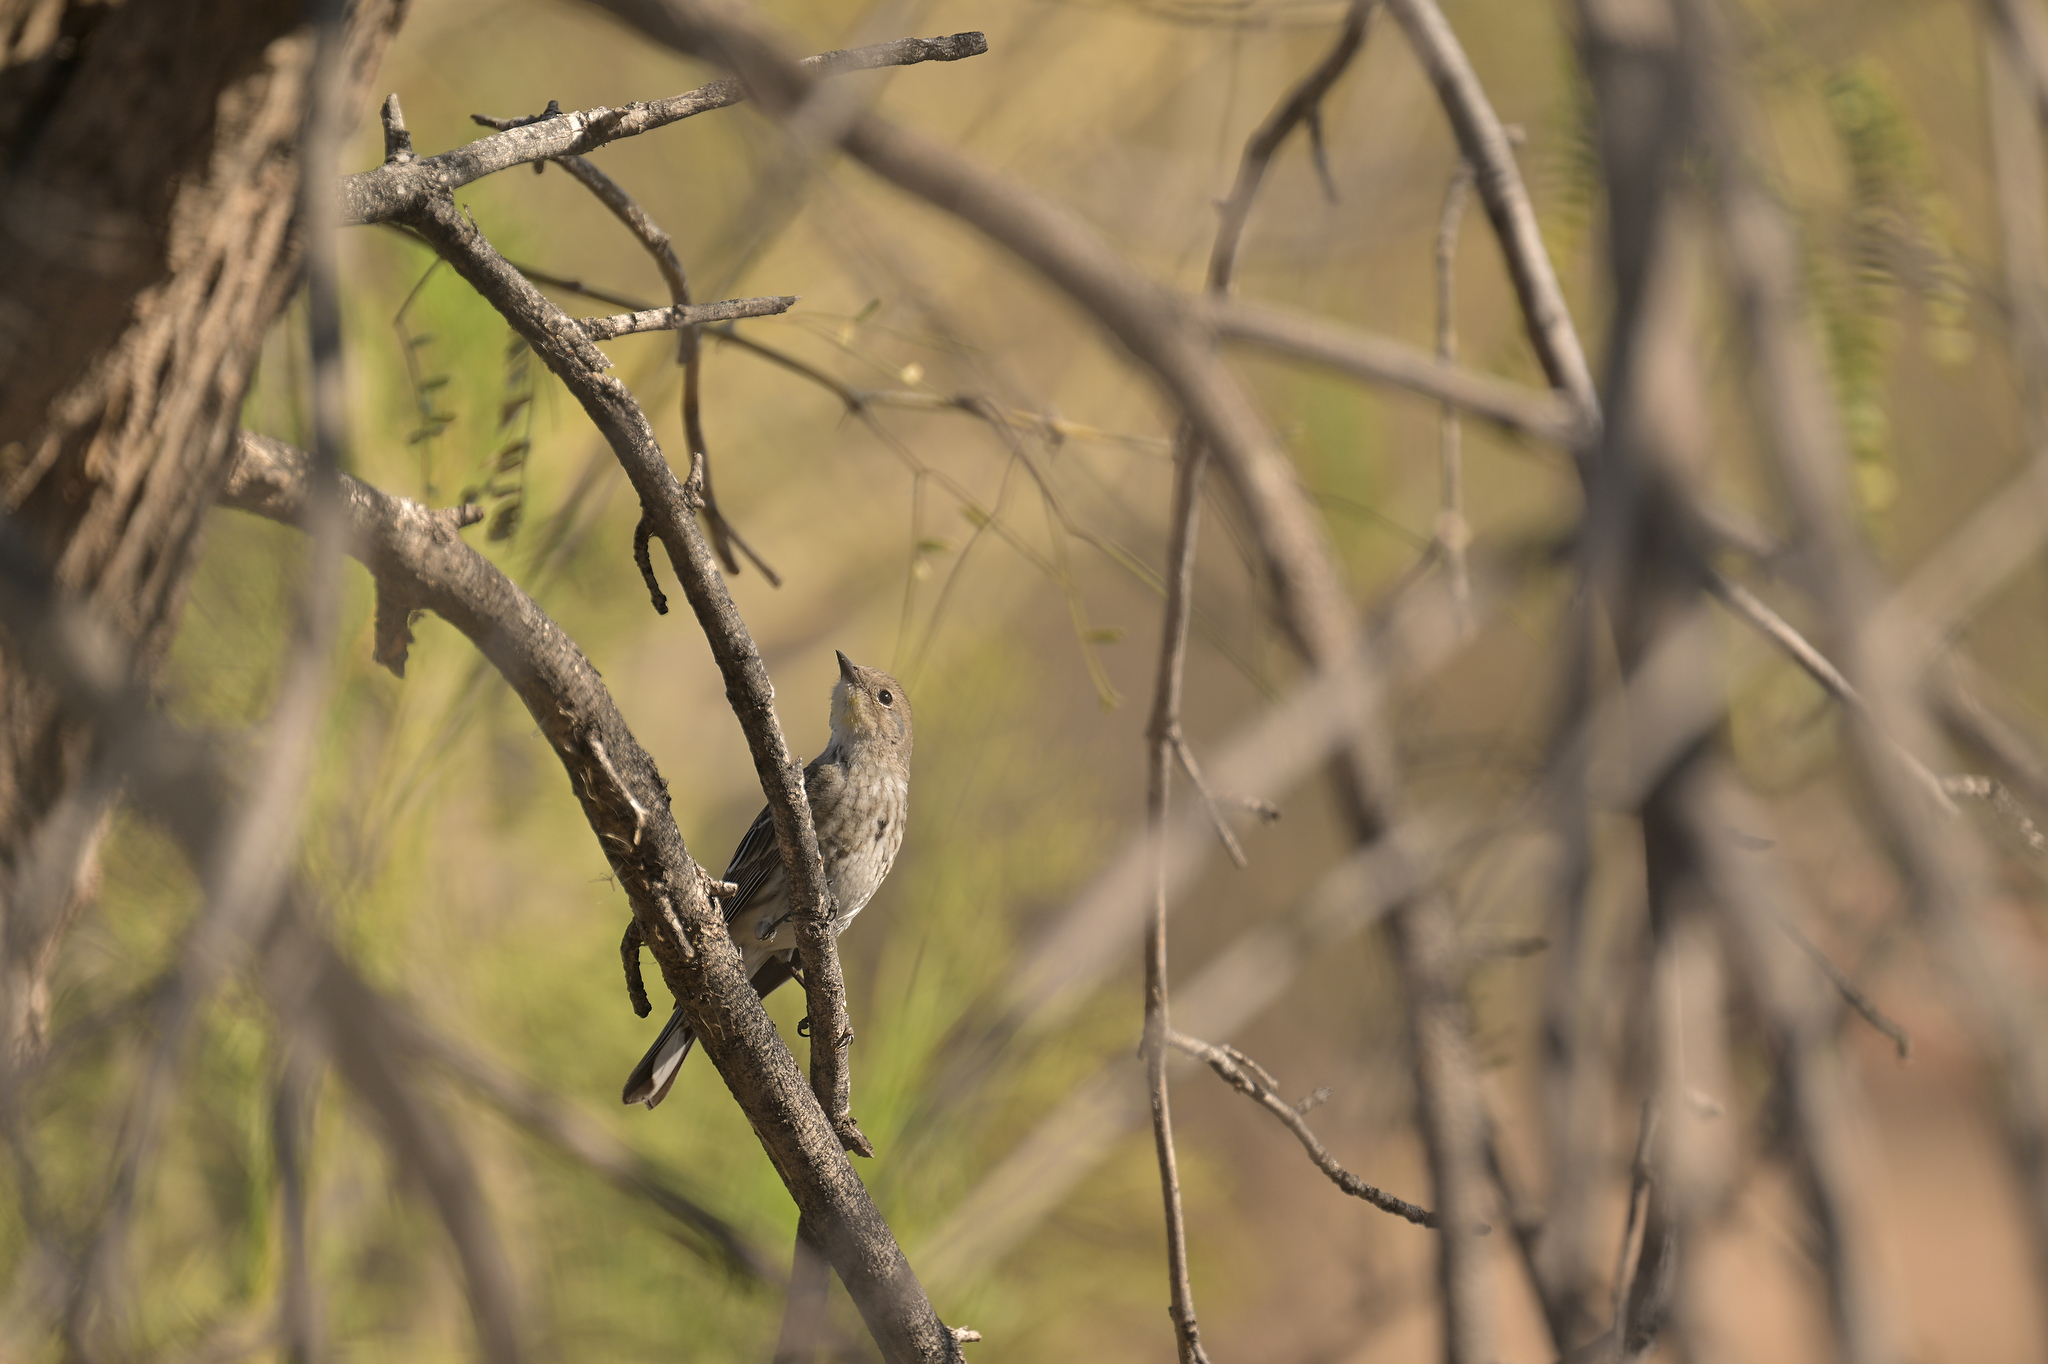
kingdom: Animalia
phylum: Chordata
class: Aves
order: Passeriformes
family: Parulidae
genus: Setophaga
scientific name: Setophaga coronata
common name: Myrtle warbler
